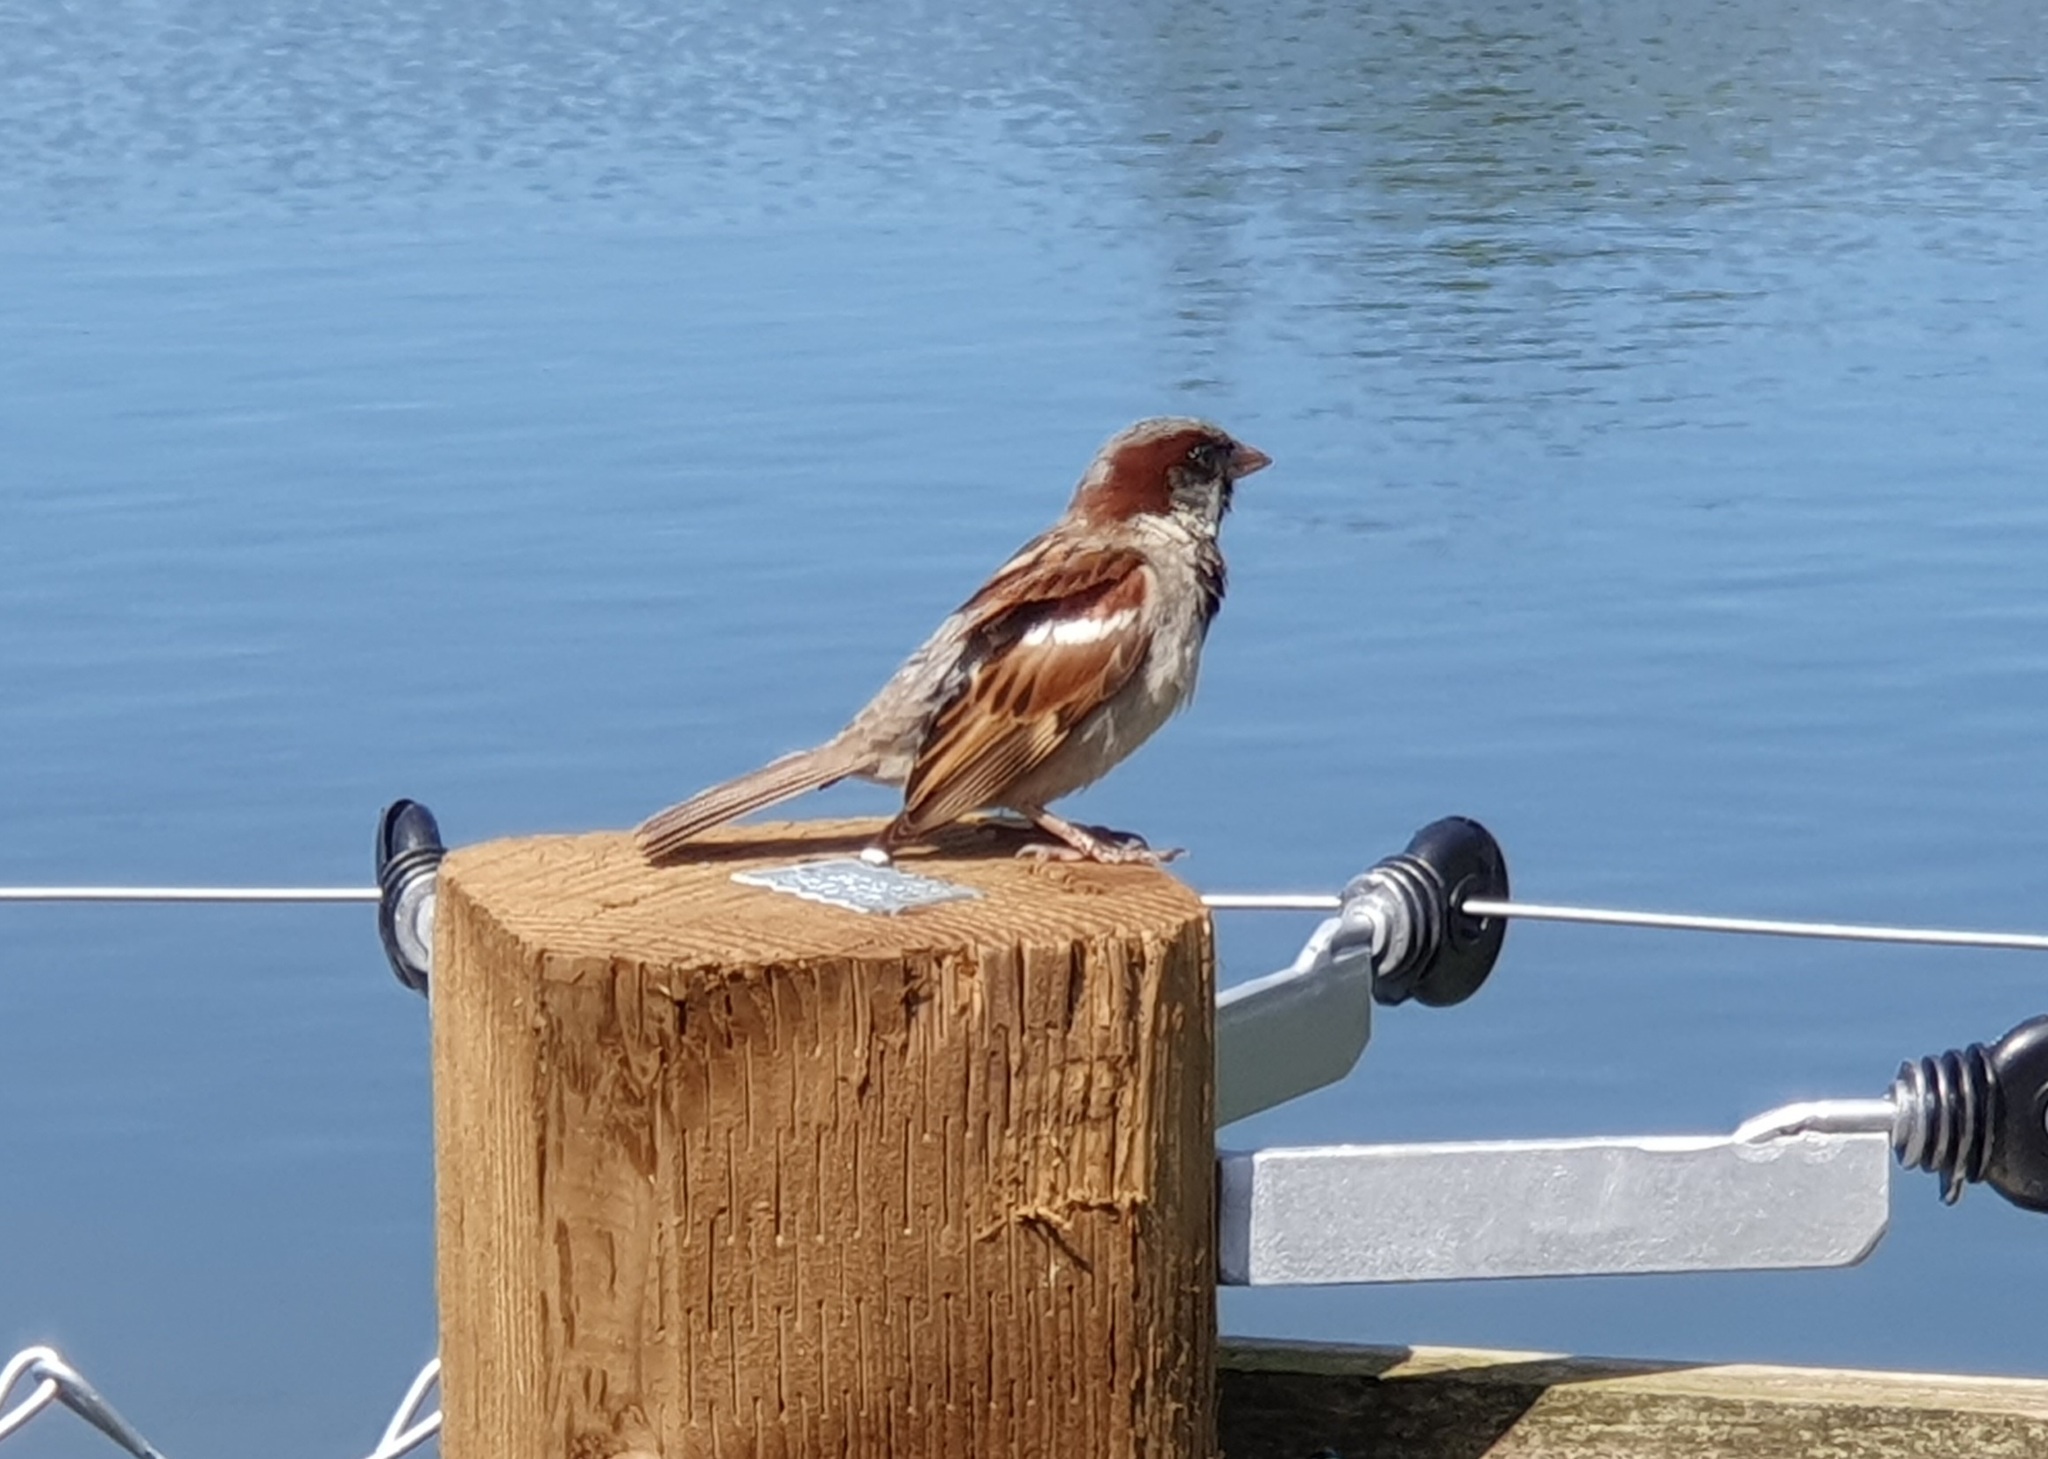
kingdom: Animalia
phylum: Chordata
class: Aves
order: Passeriformes
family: Passeridae
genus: Passer
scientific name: Passer domesticus
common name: House sparrow
